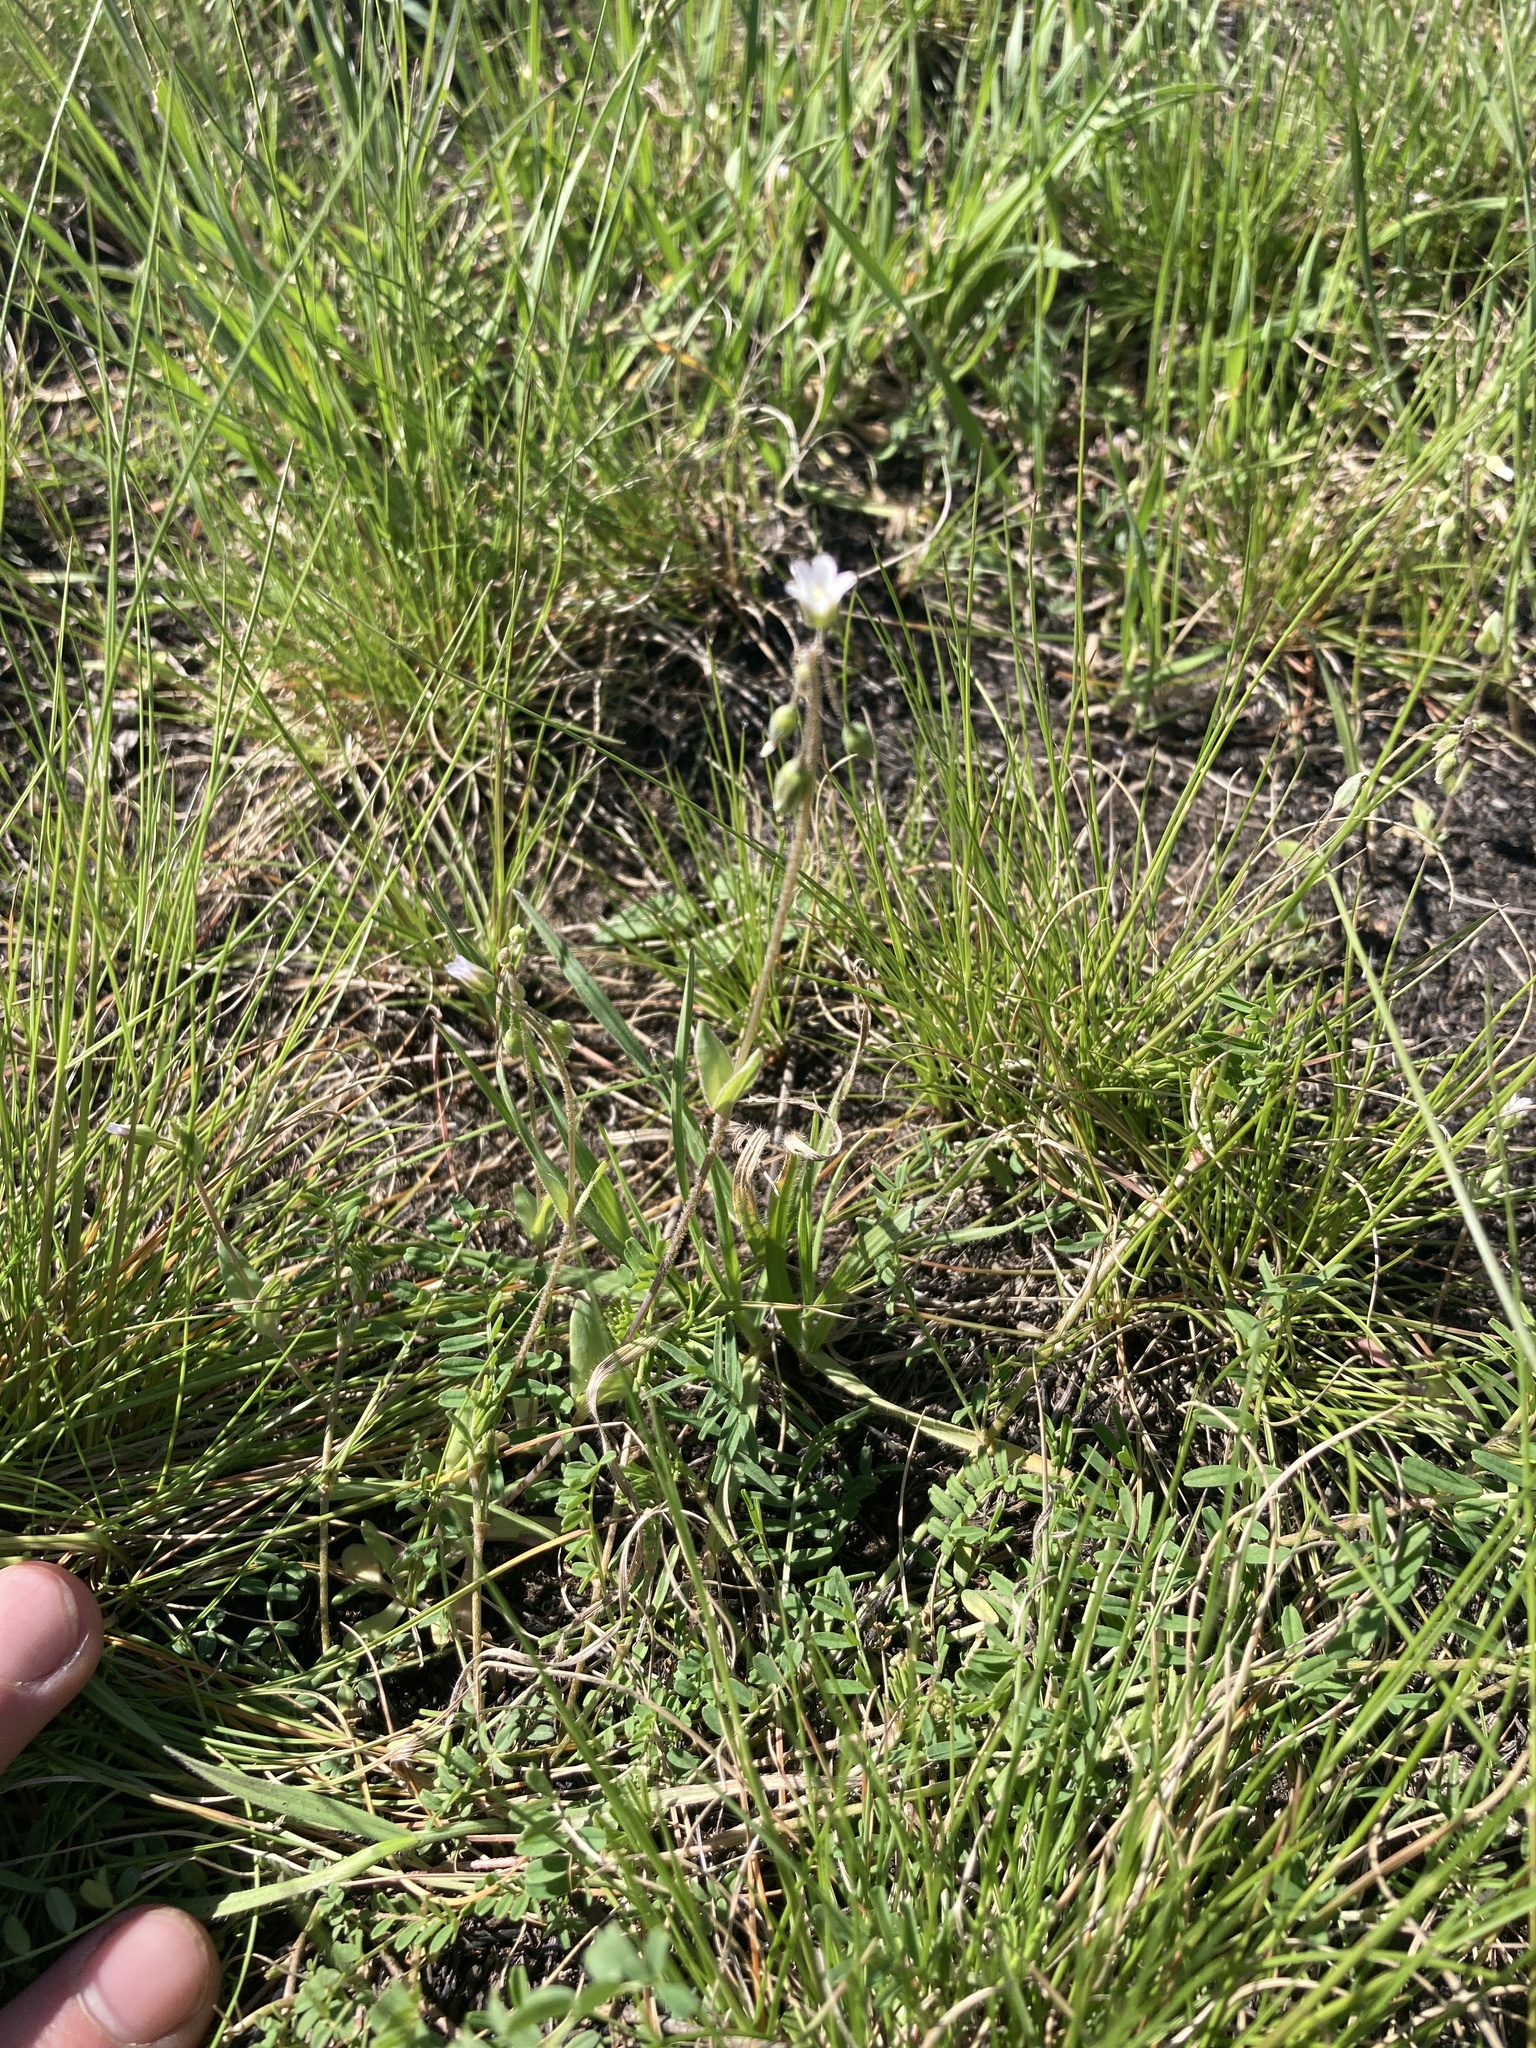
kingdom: Plantae
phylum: Tracheophyta
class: Magnoliopsida
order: Caryophyllales
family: Caryophyllaceae
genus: Holosteum
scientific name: Holosteum umbellatum
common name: Jagged chickweed
